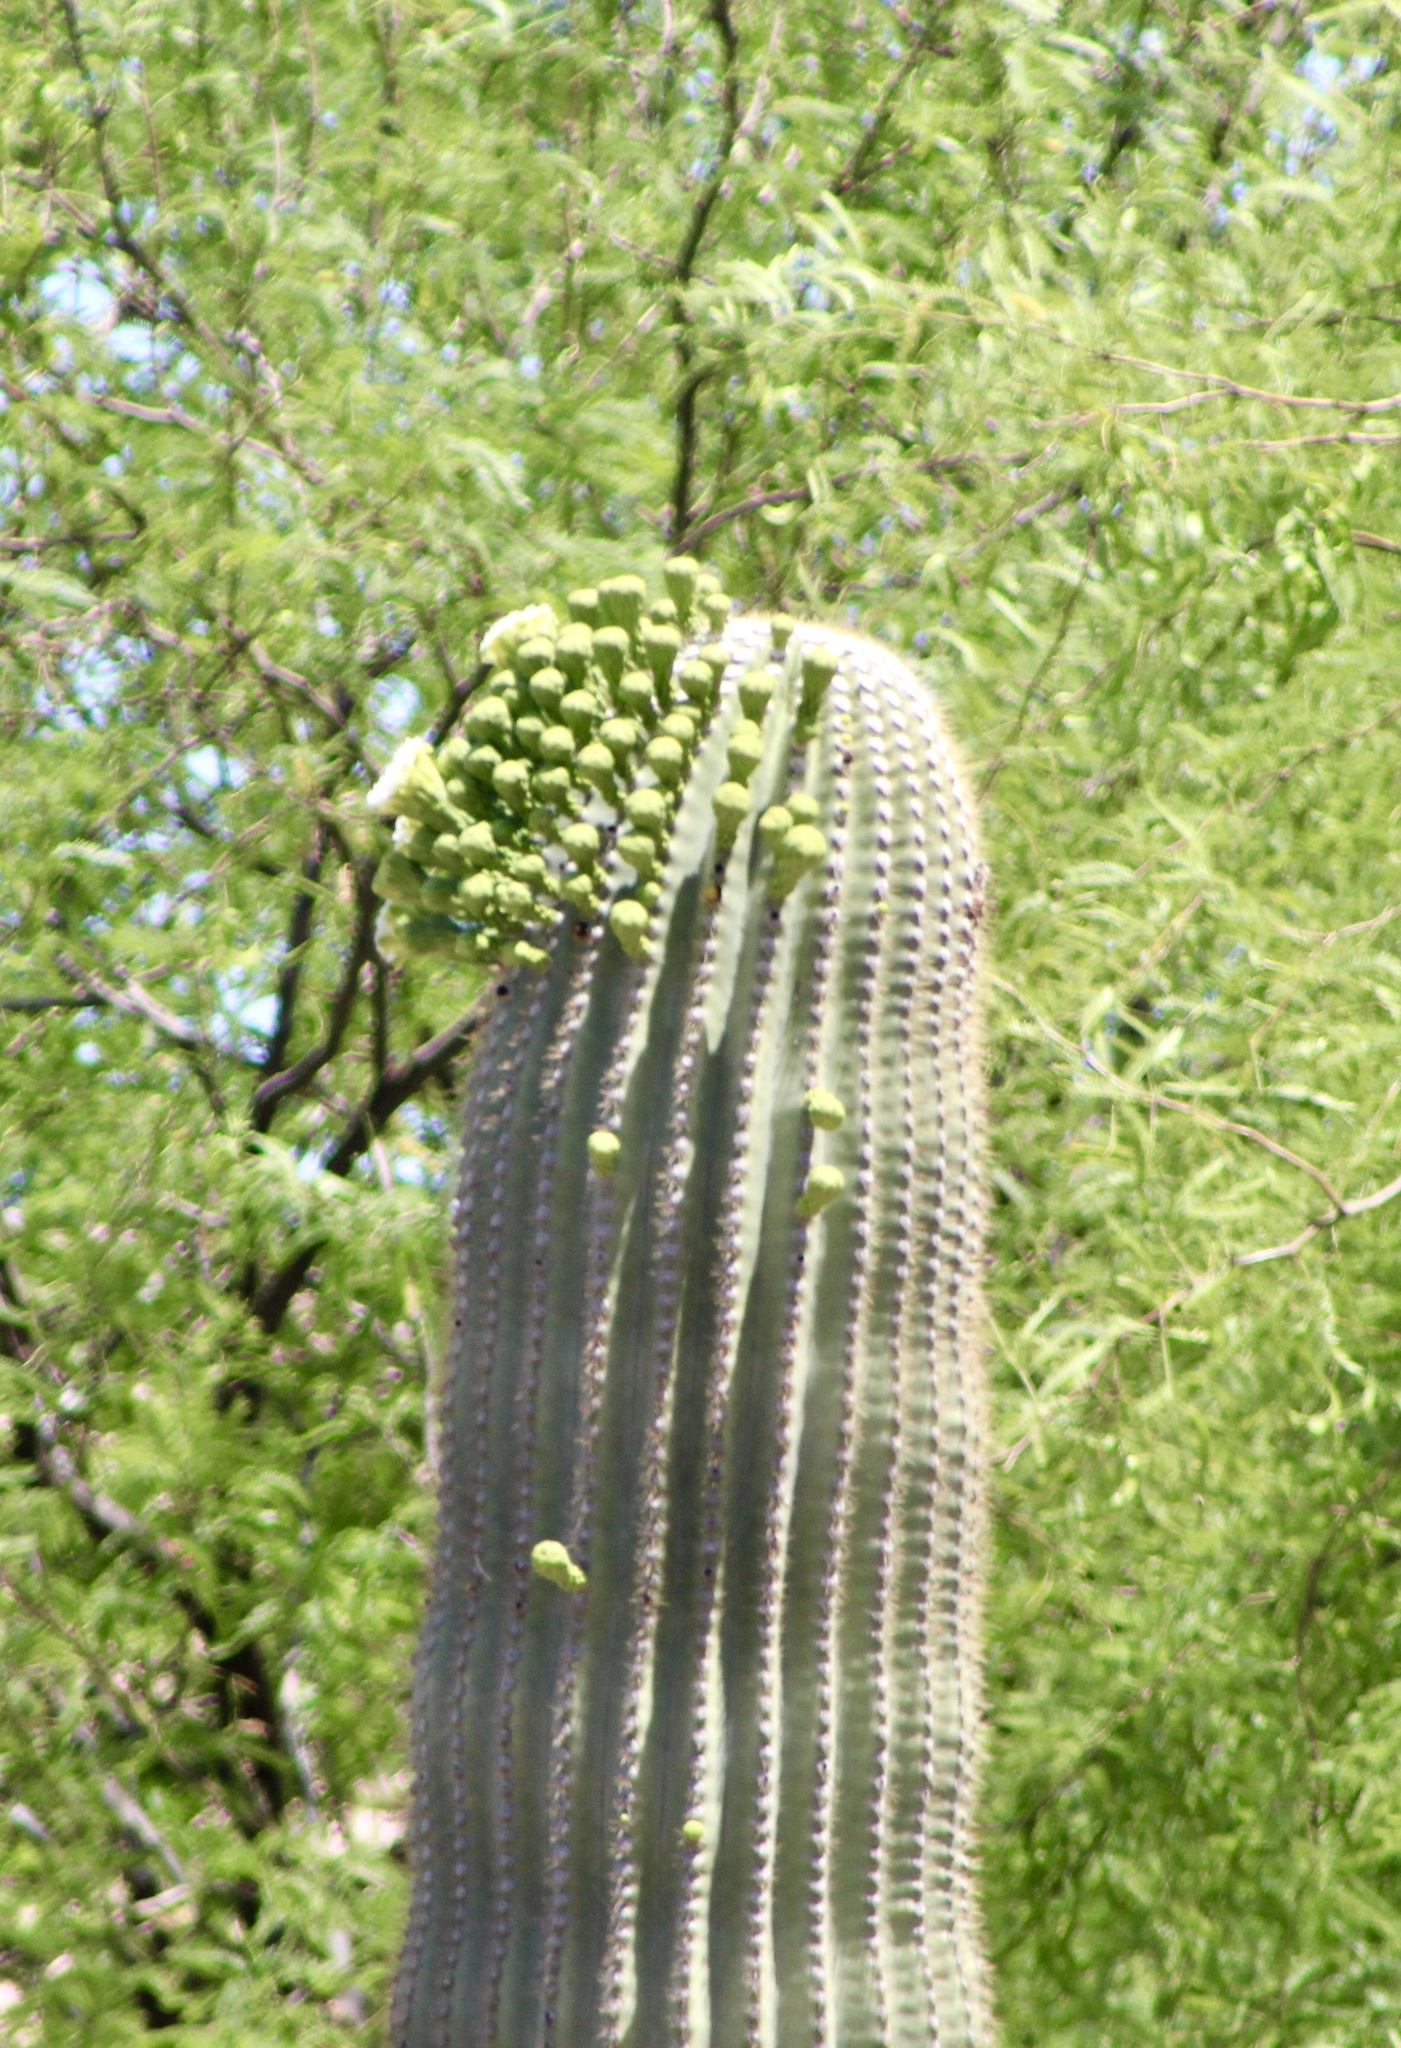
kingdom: Plantae
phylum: Tracheophyta
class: Magnoliopsida
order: Caryophyllales
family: Cactaceae
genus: Carnegiea
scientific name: Carnegiea gigantea
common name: Saguaro
